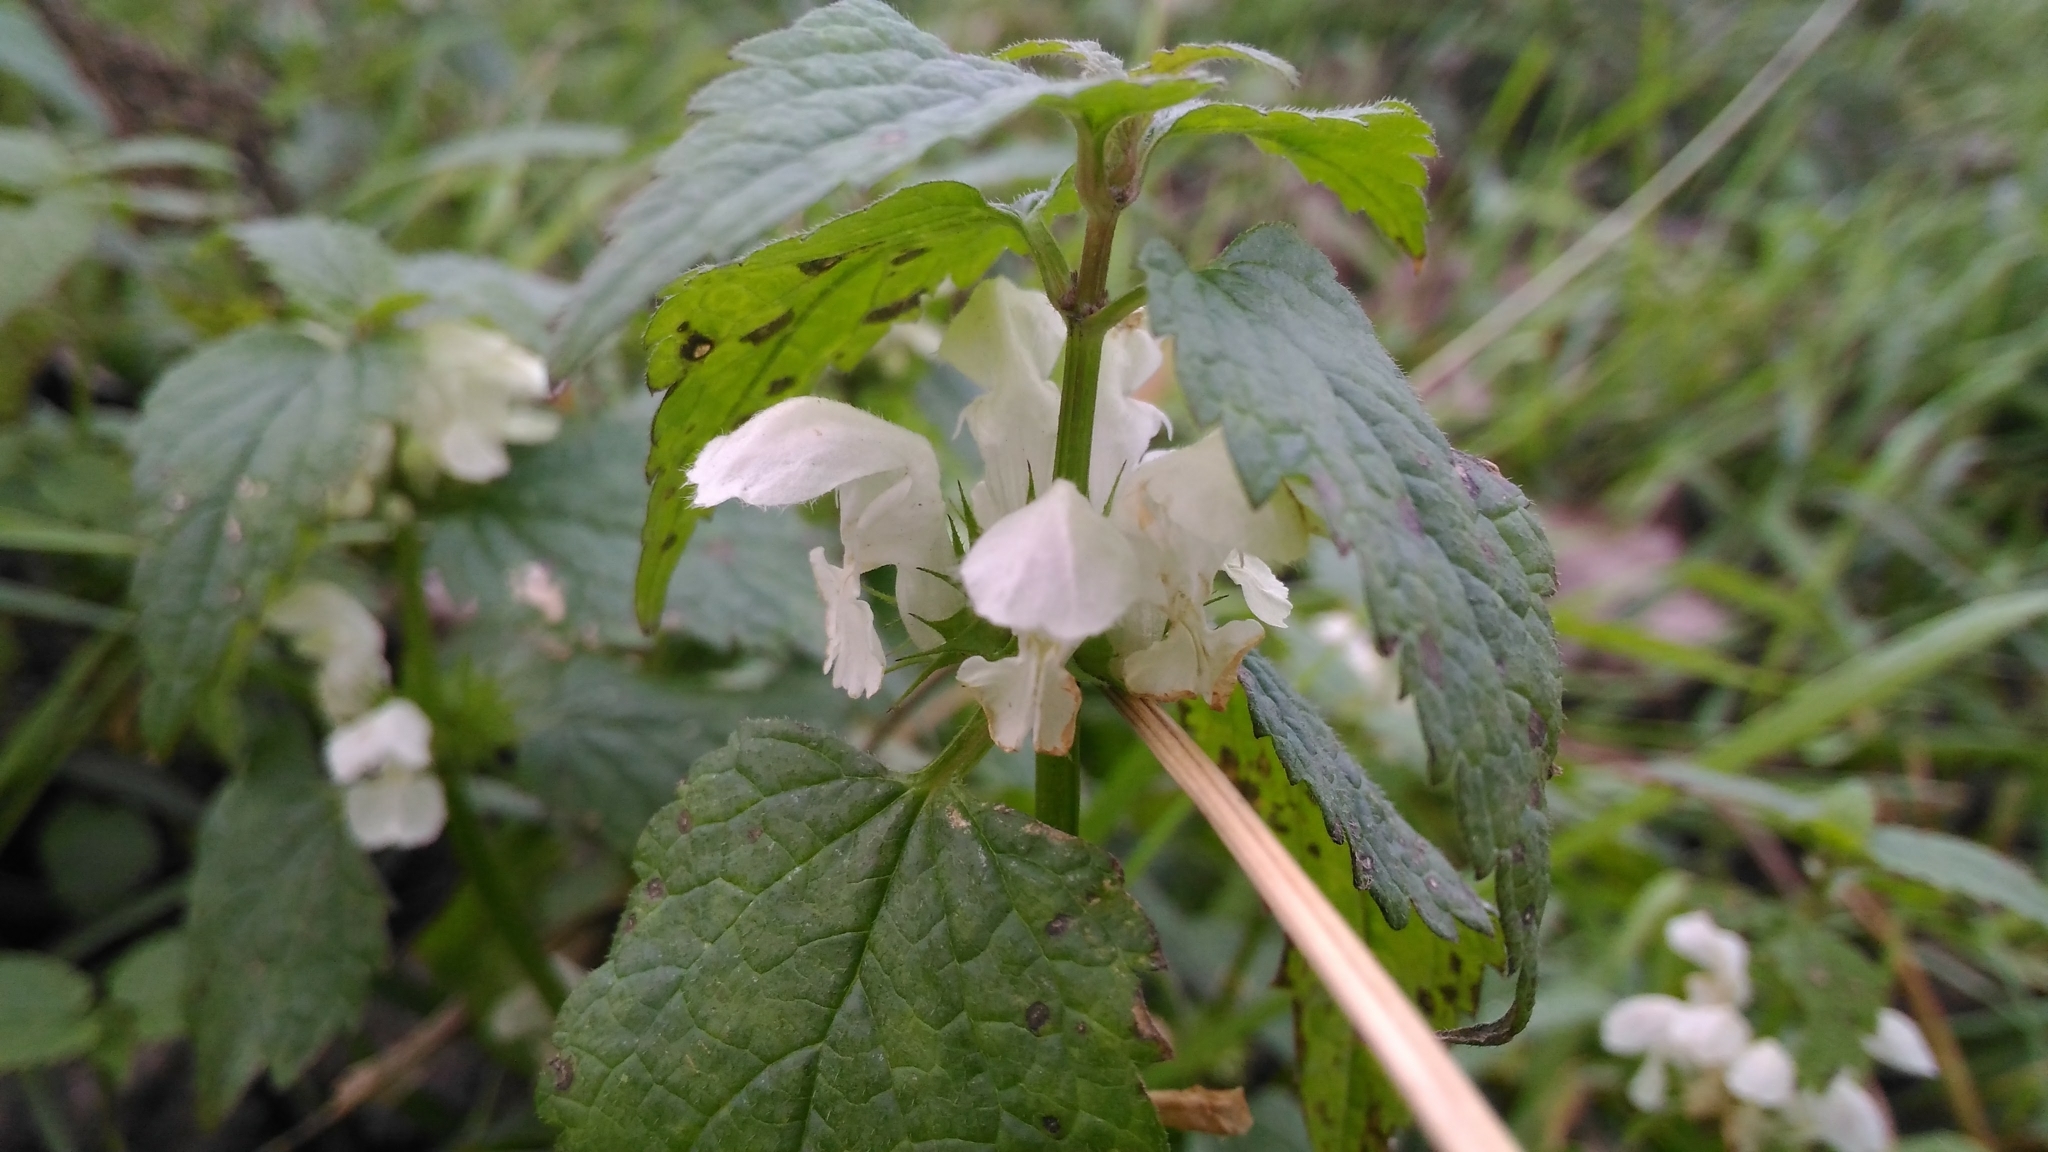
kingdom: Plantae
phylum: Tracheophyta
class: Magnoliopsida
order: Lamiales
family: Lamiaceae
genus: Lamium
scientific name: Lamium album
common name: White dead-nettle
